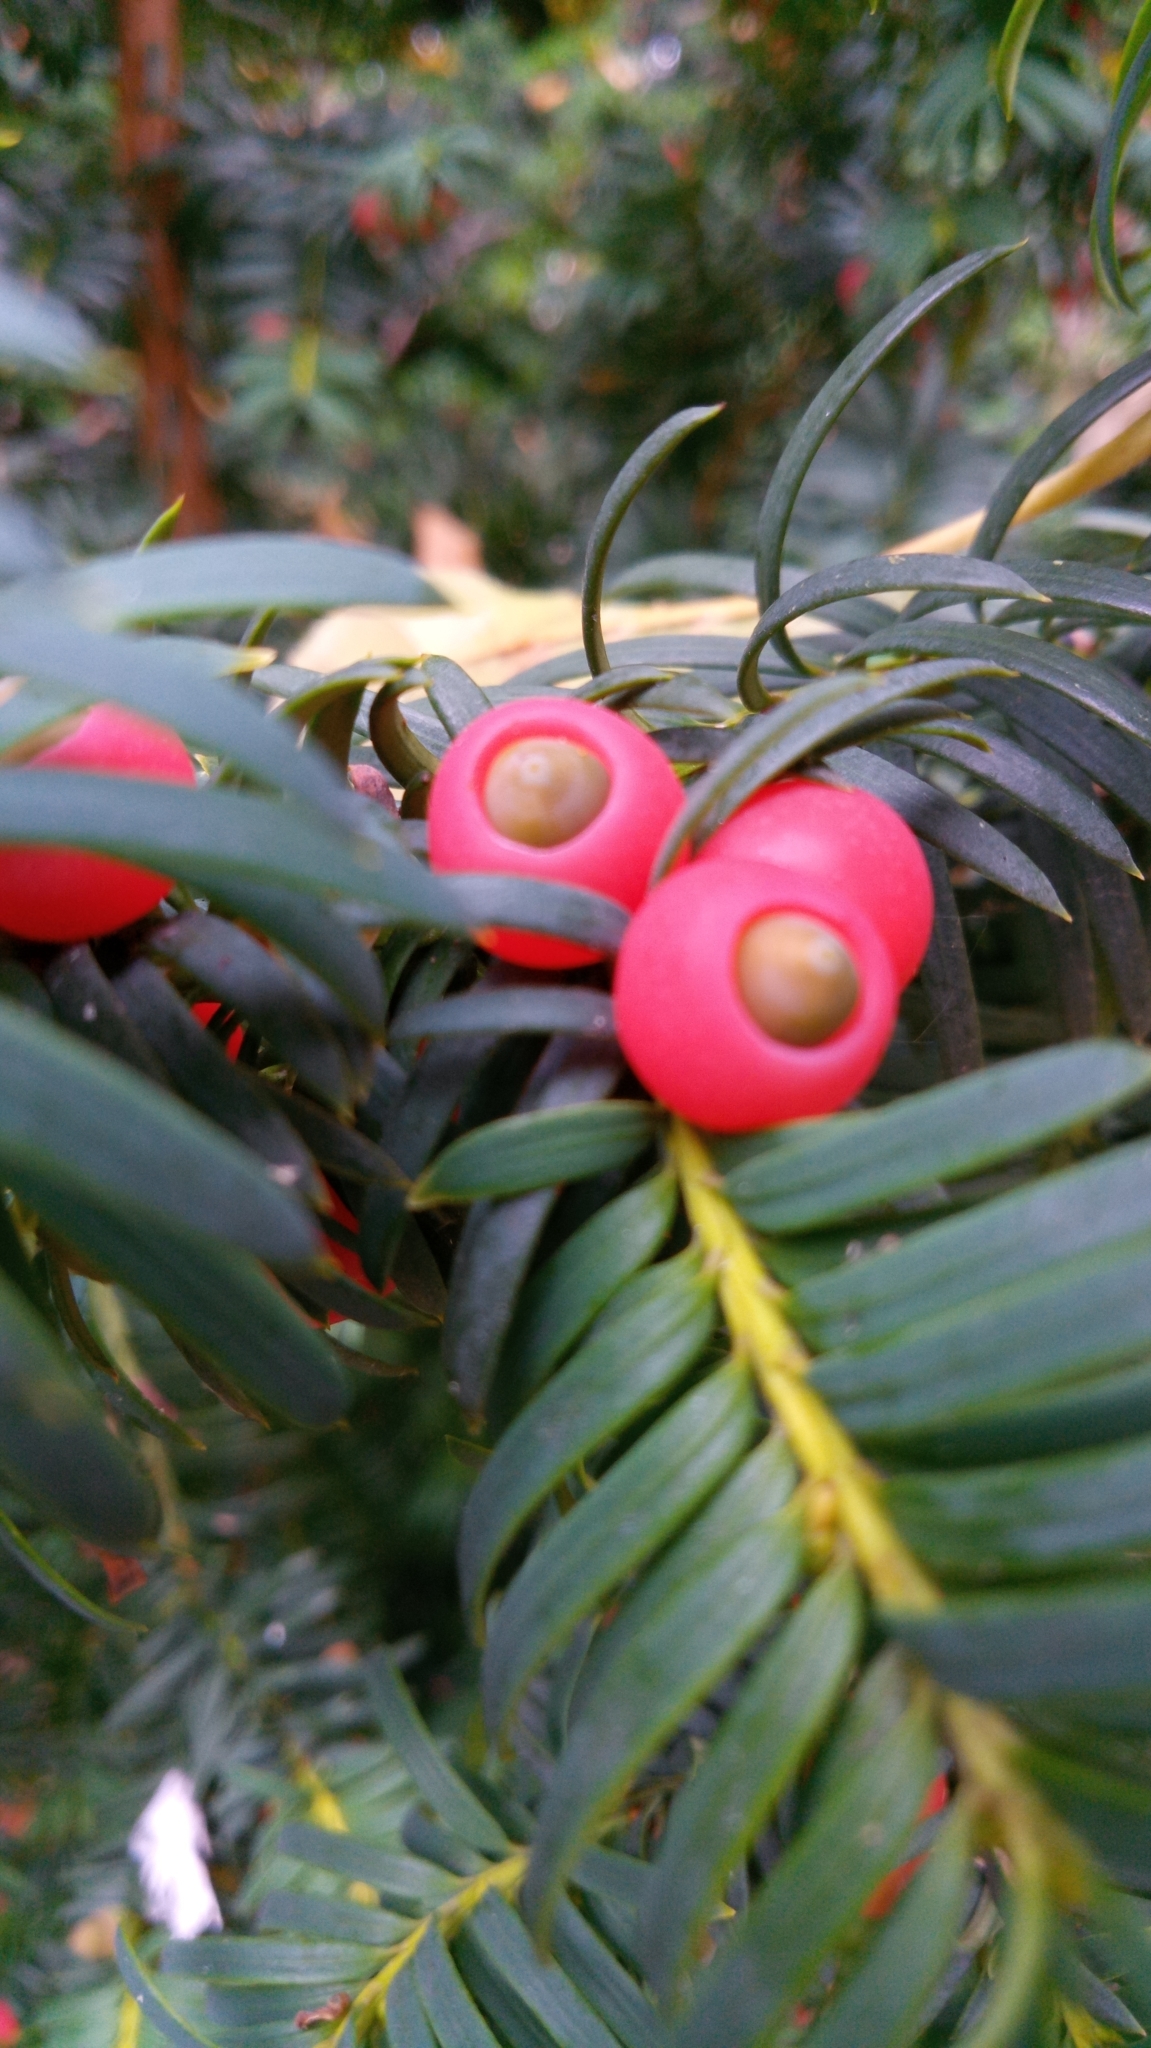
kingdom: Plantae
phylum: Tracheophyta
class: Pinopsida
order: Pinales
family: Taxaceae
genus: Taxus
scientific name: Taxus baccata
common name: Yew
